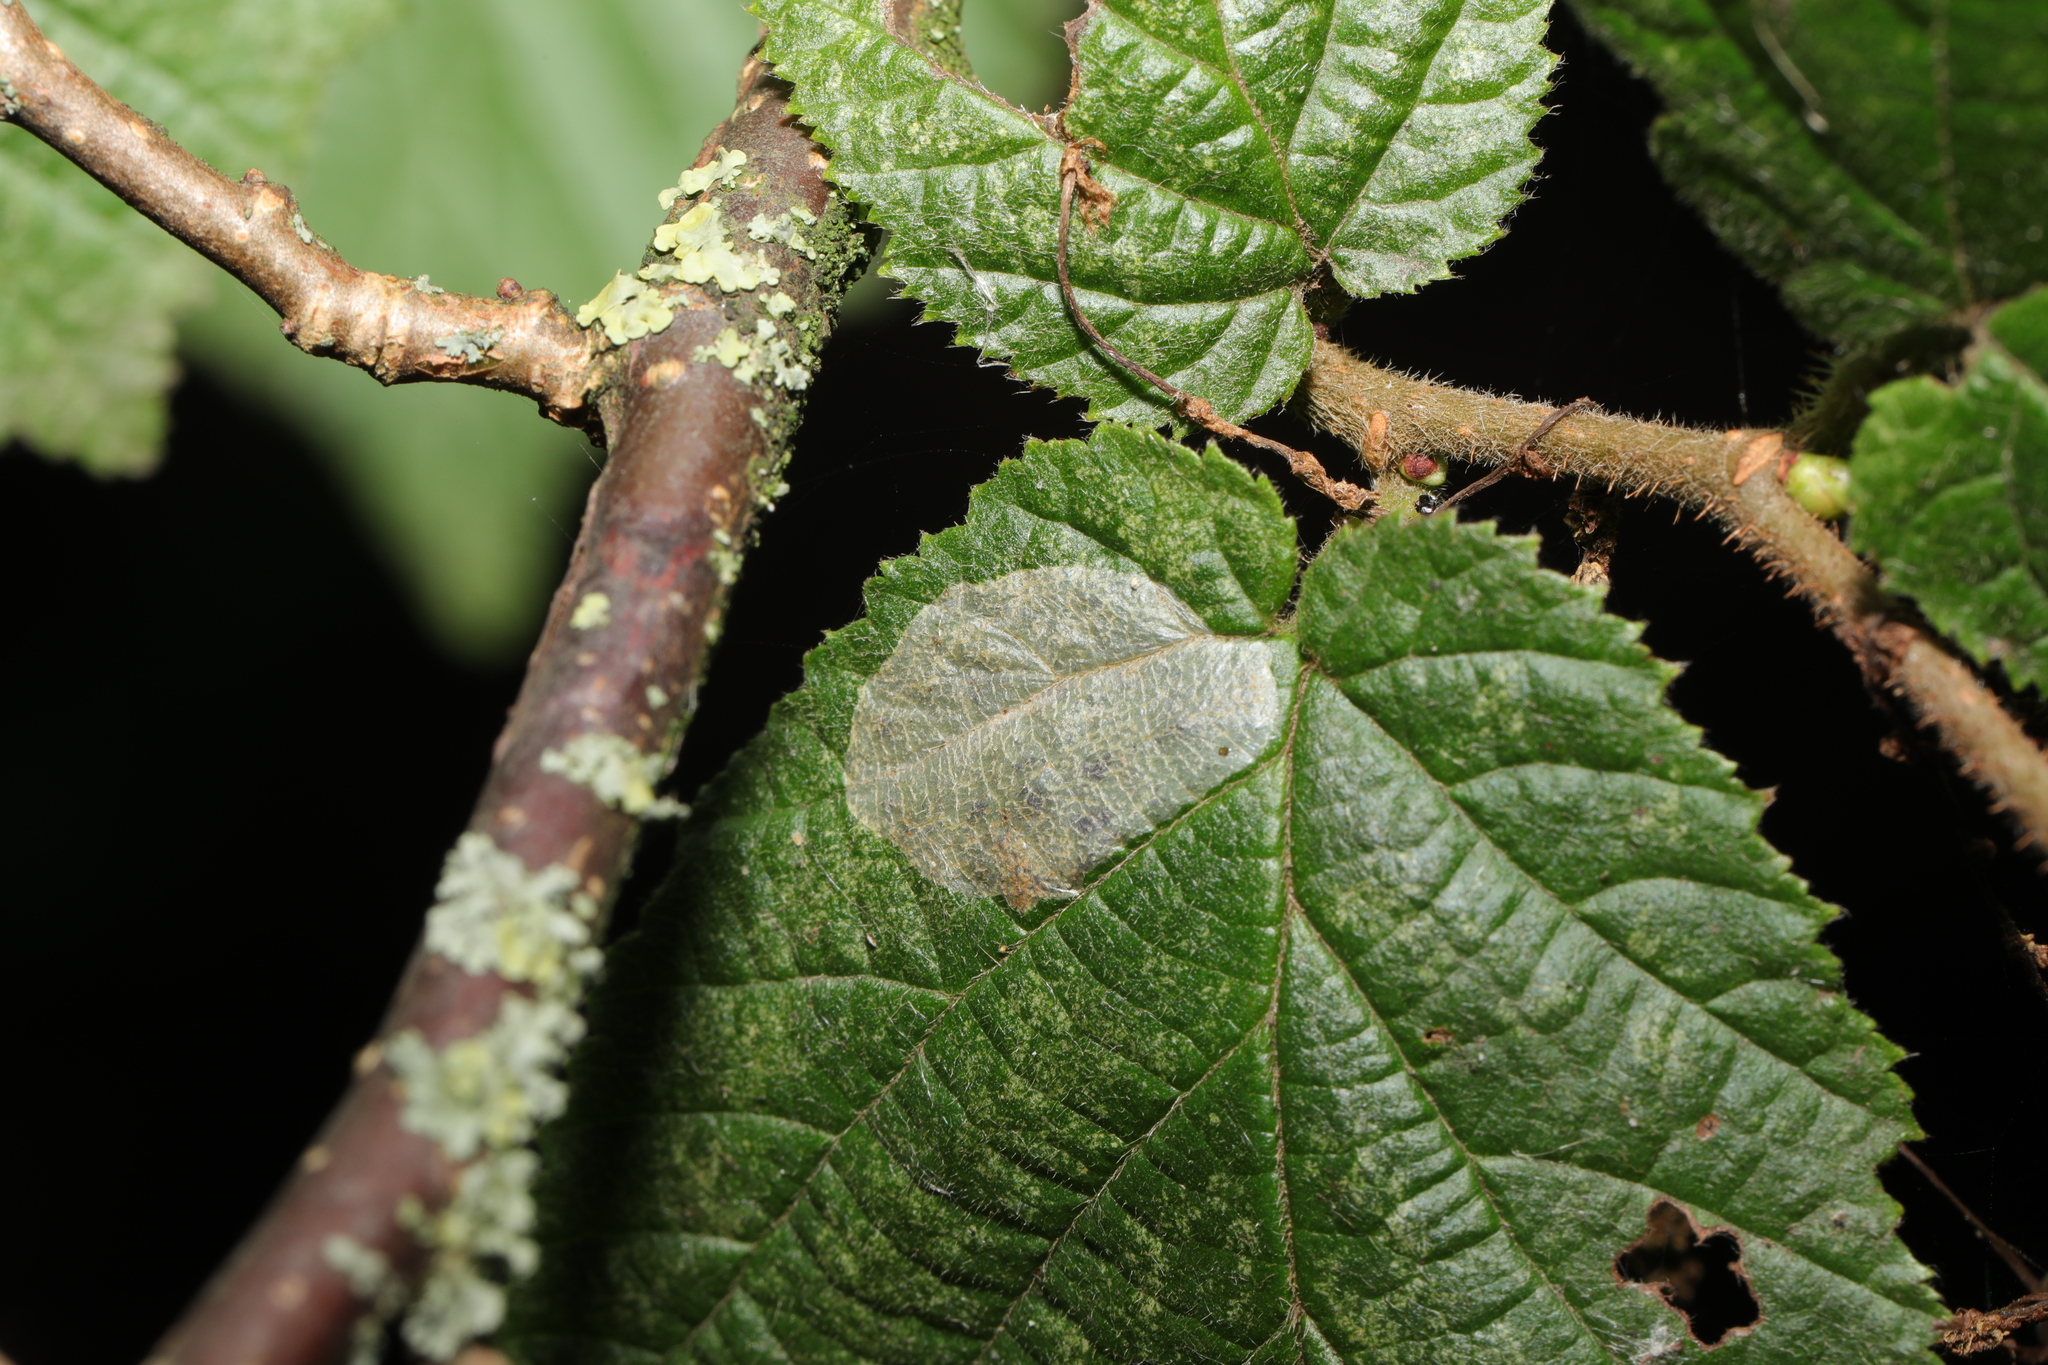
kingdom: Animalia
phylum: Arthropoda
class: Insecta
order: Lepidoptera
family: Gracillariidae
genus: Phyllonorycter
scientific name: Phyllonorycter coryli
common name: Nut-leaf blister moth
